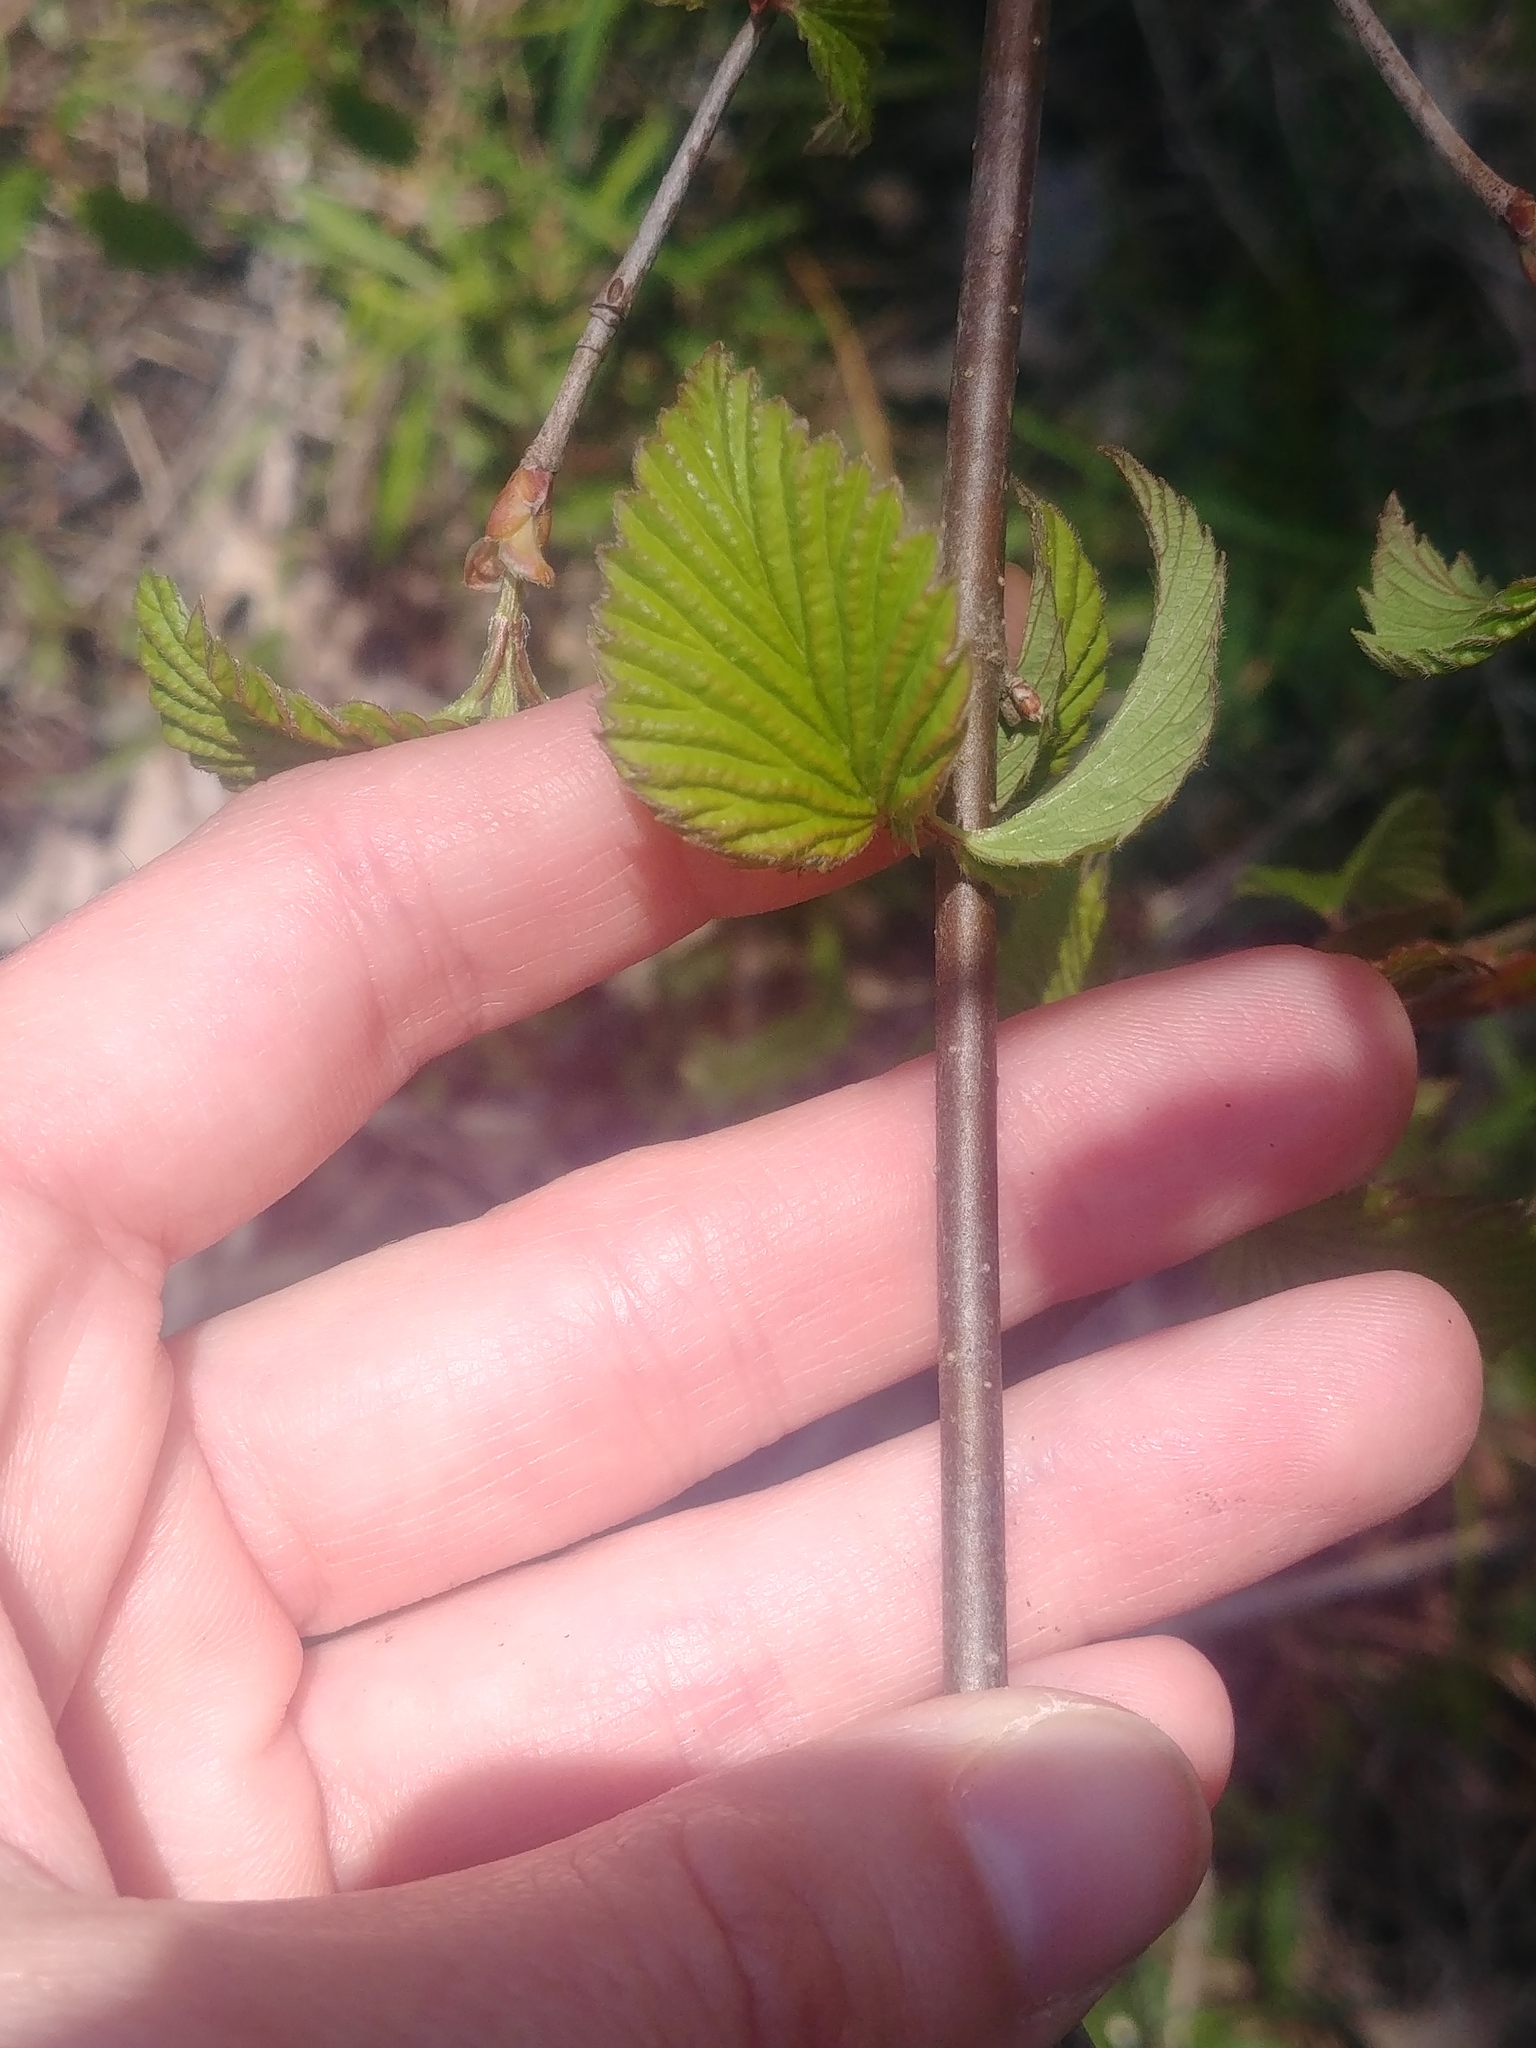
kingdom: Plantae
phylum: Tracheophyta
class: Magnoliopsida
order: Dipsacales
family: Viburnaceae
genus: Viburnum
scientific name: Viburnum recognitum
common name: Northern arrow-wood
